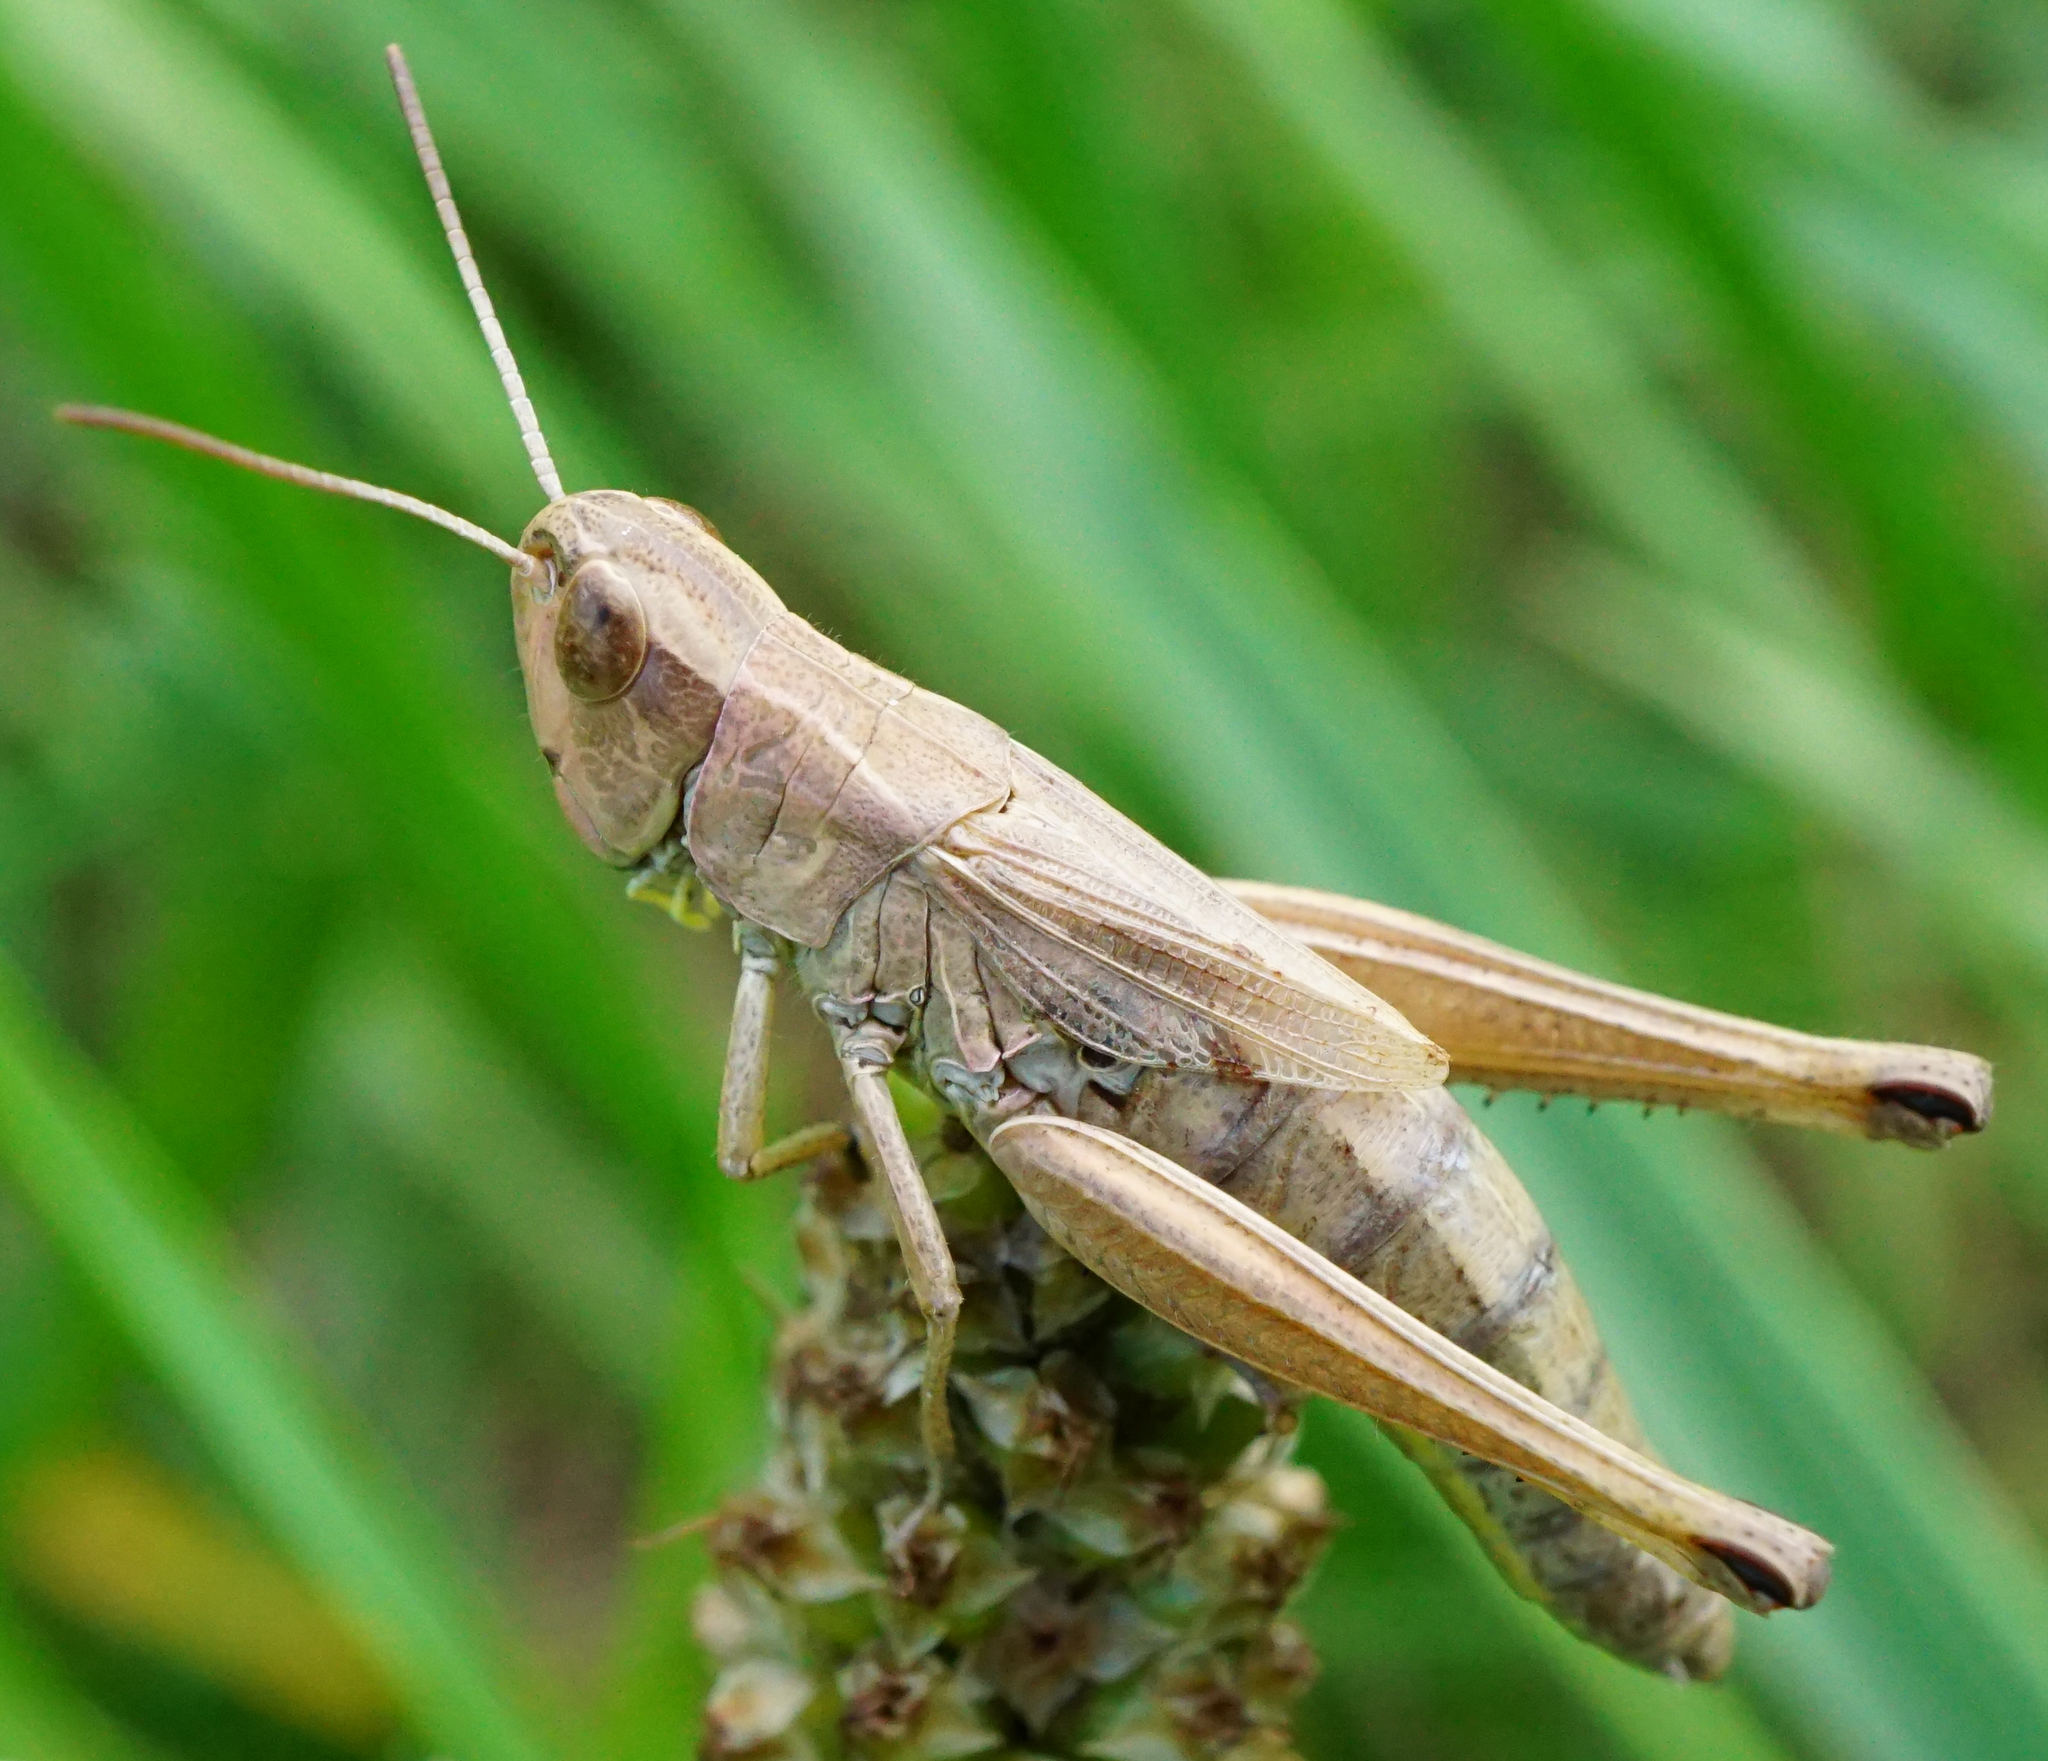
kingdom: Animalia
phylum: Arthropoda
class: Insecta
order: Orthoptera
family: Acrididae
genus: Pseudochorthippus
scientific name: Pseudochorthippus parallelus
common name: Meadow grasshopper
